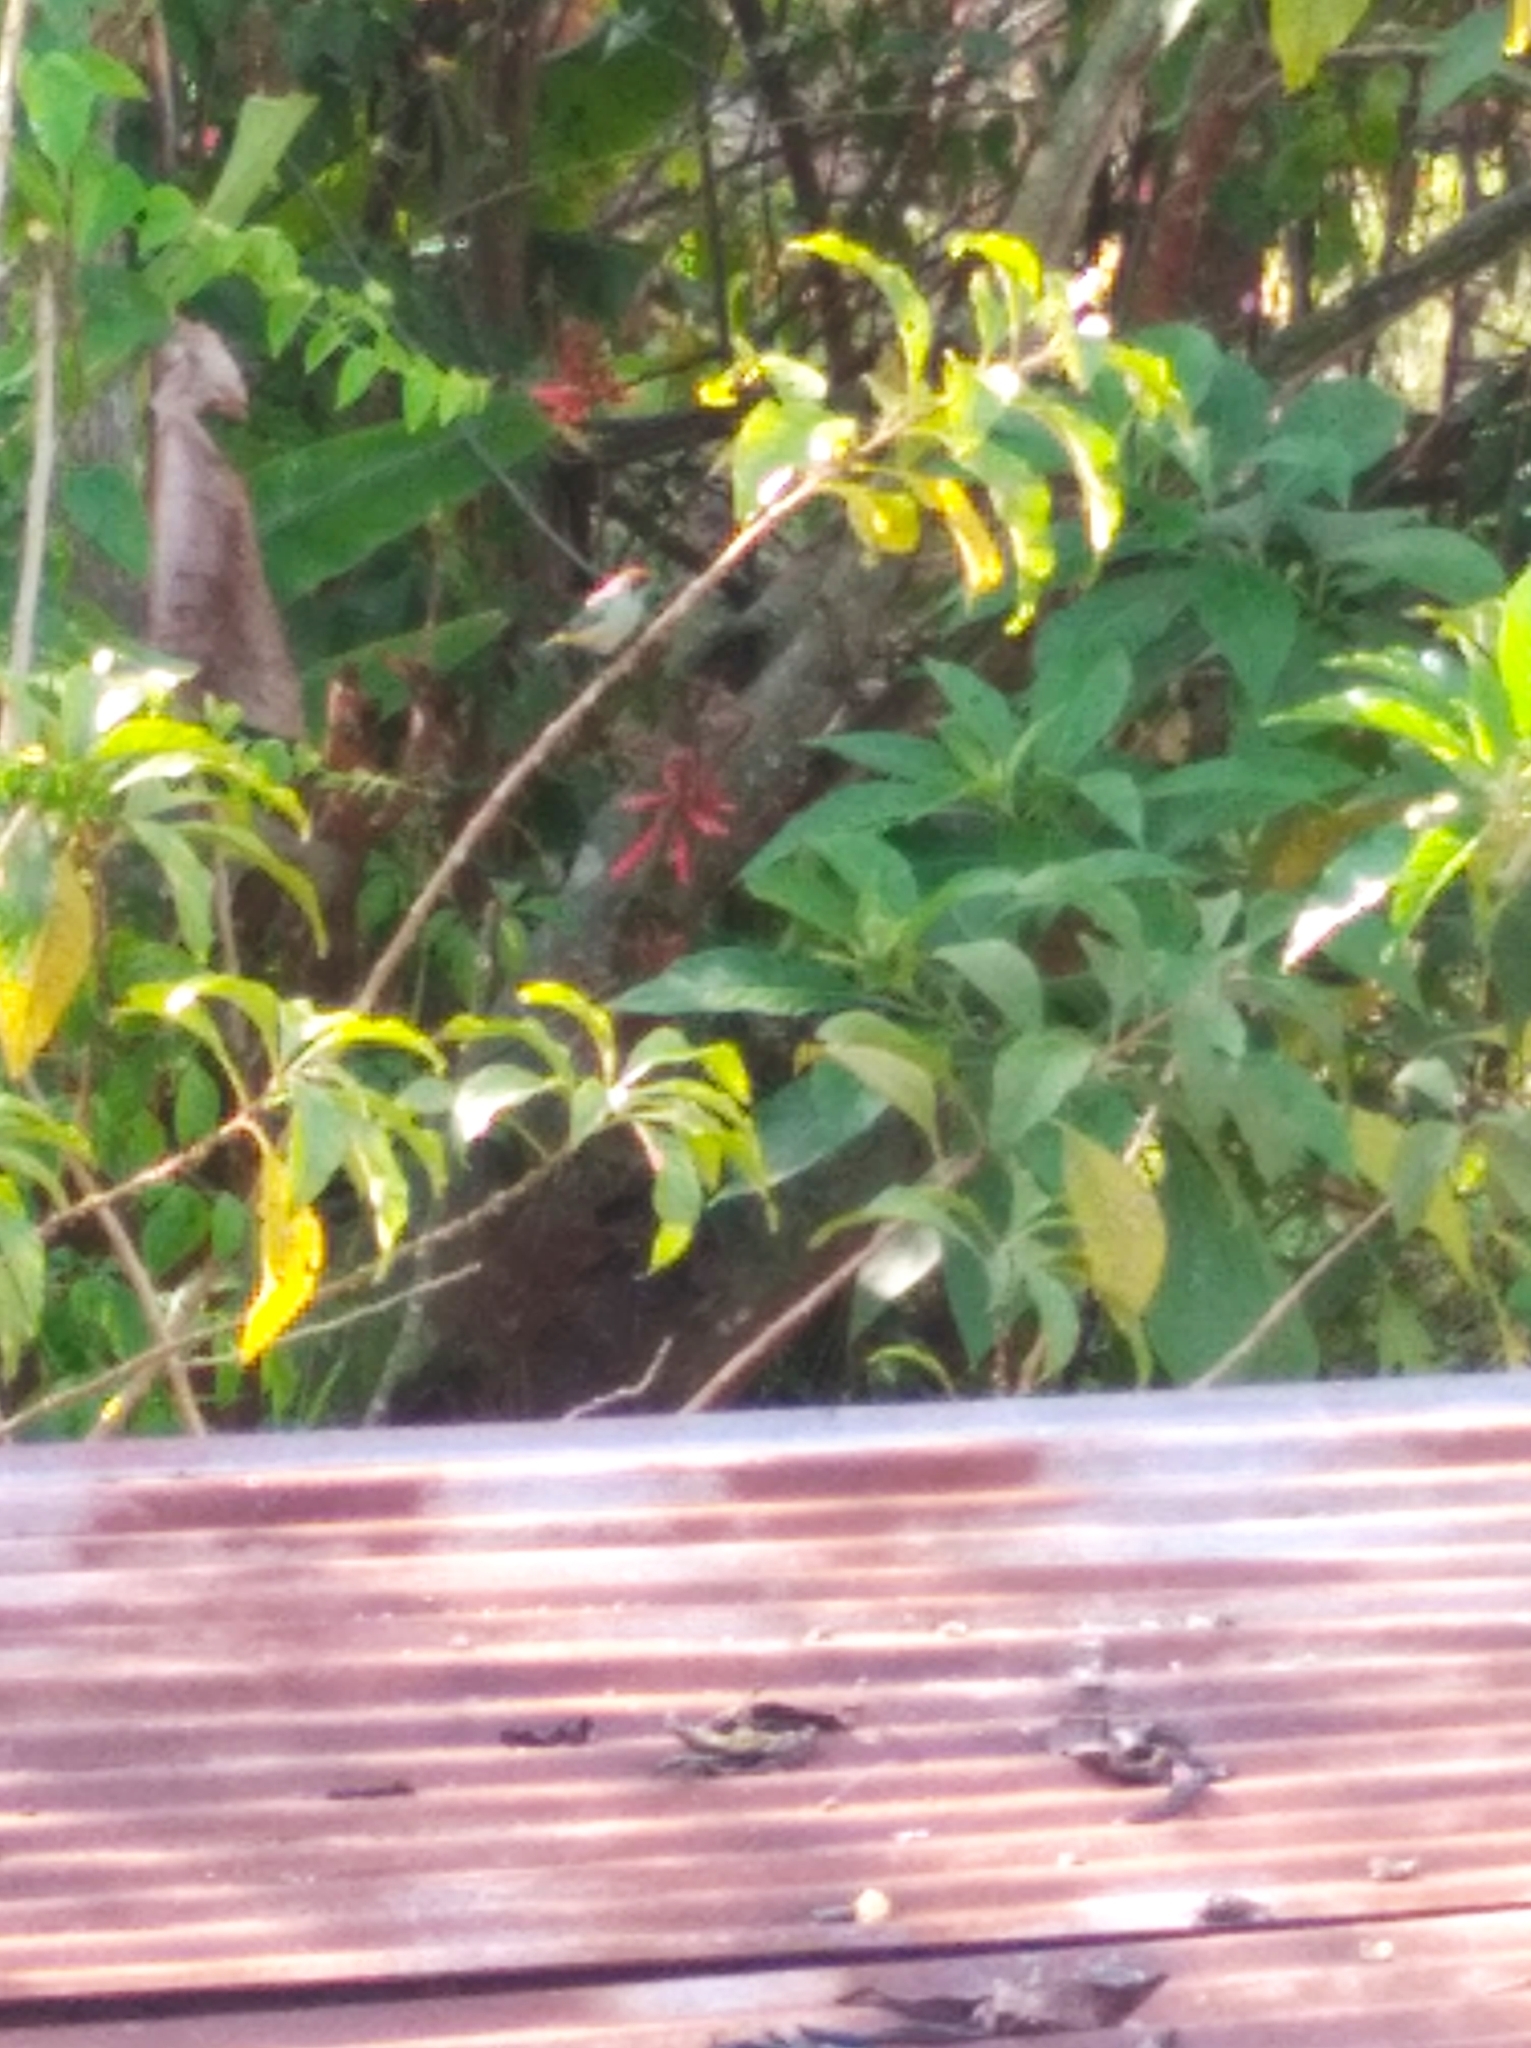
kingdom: Animalia
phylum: Chordata
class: Aves
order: Passeriformes
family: Thraupidae
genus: Stilpnia
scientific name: Stilpnia cayana
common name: Burnished-buff tanager
